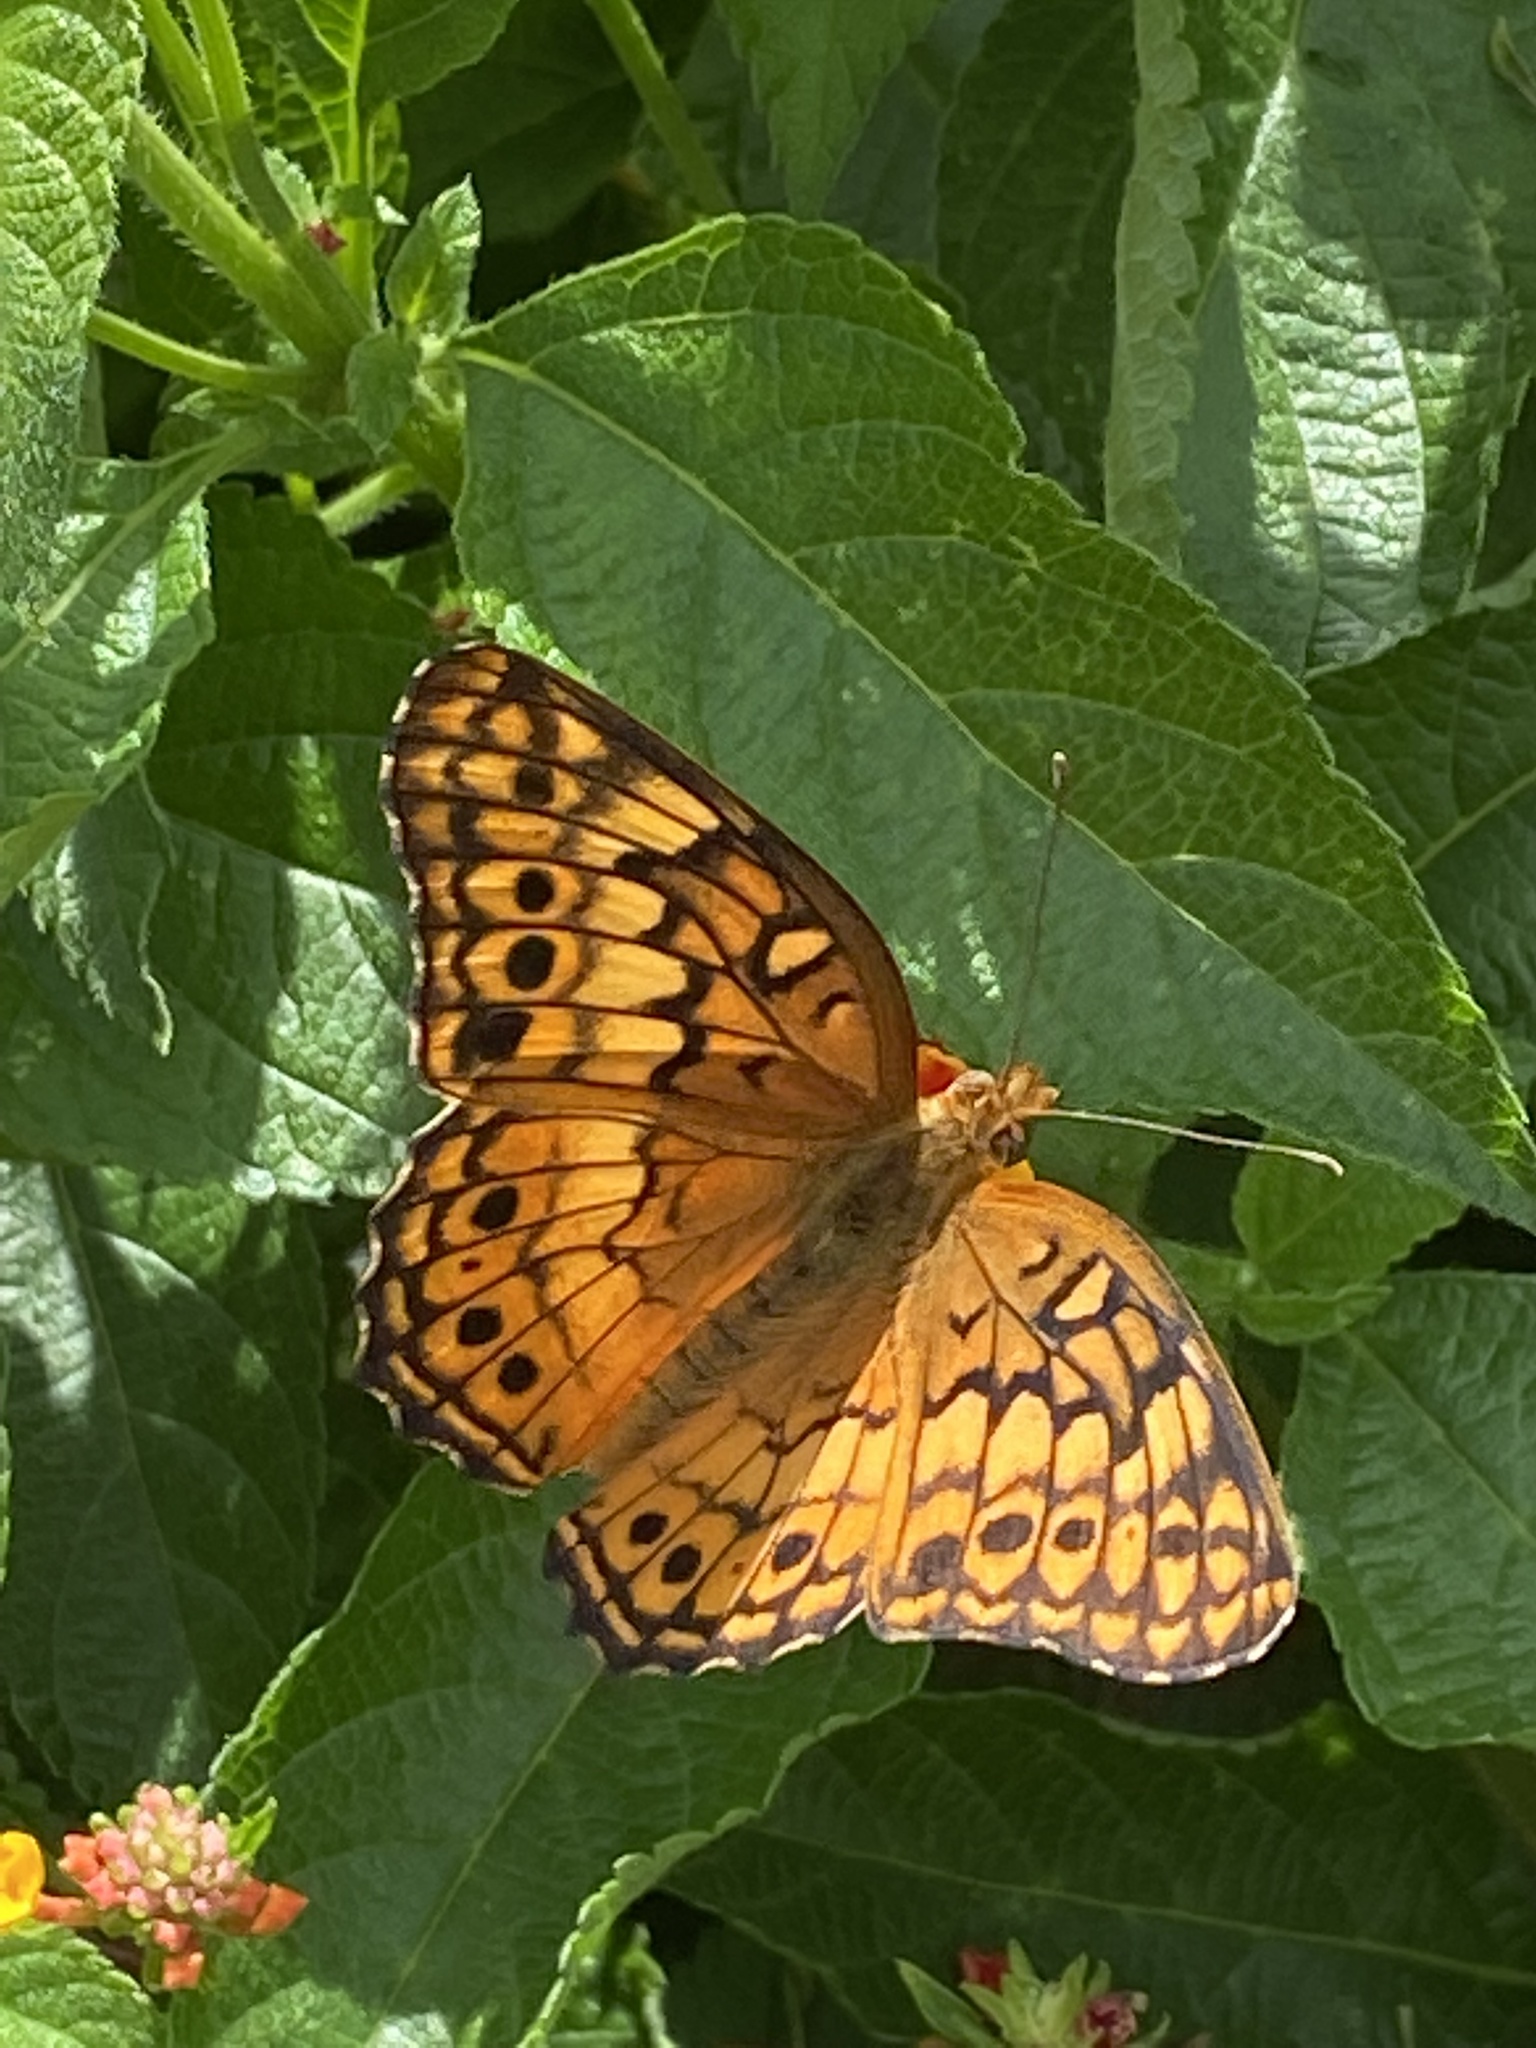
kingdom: Animalia
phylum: Arthropoda
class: Insecta
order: Lepidoptera
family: Nymphalidae
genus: Euptoieta
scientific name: Euptoieta claudia
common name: Variegated fritillary
